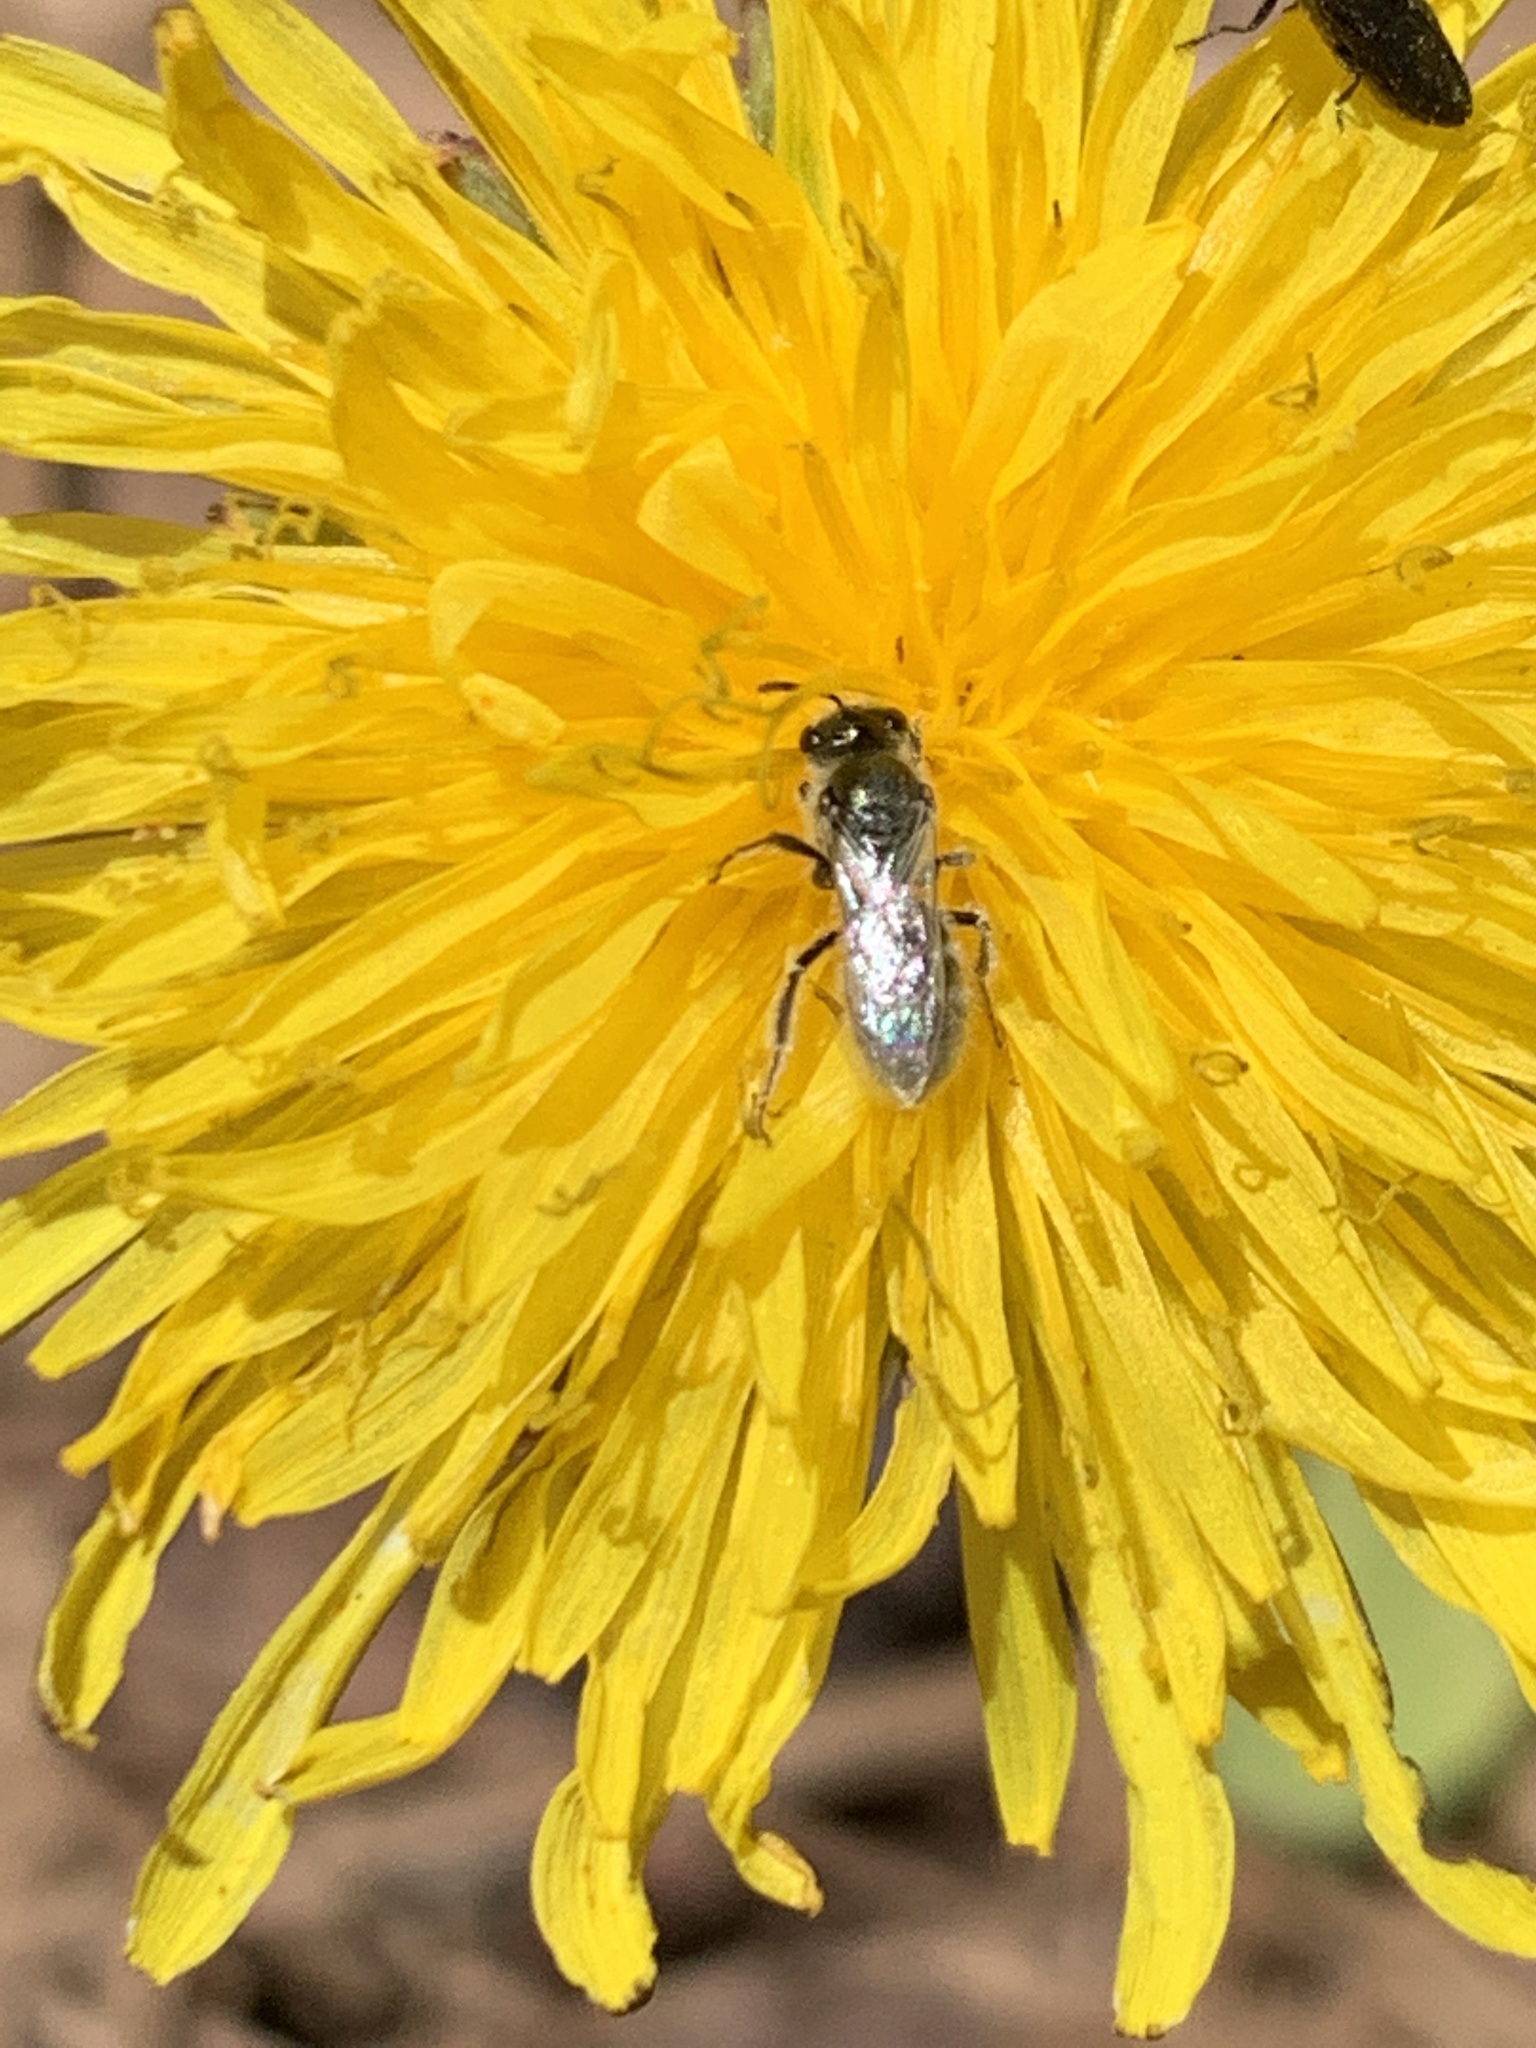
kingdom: Animalia
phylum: Arthropoda
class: Insecta
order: Hymenoptera
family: Halictidae
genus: Lasioglossum
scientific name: Lasioglossum semicaeruleum
